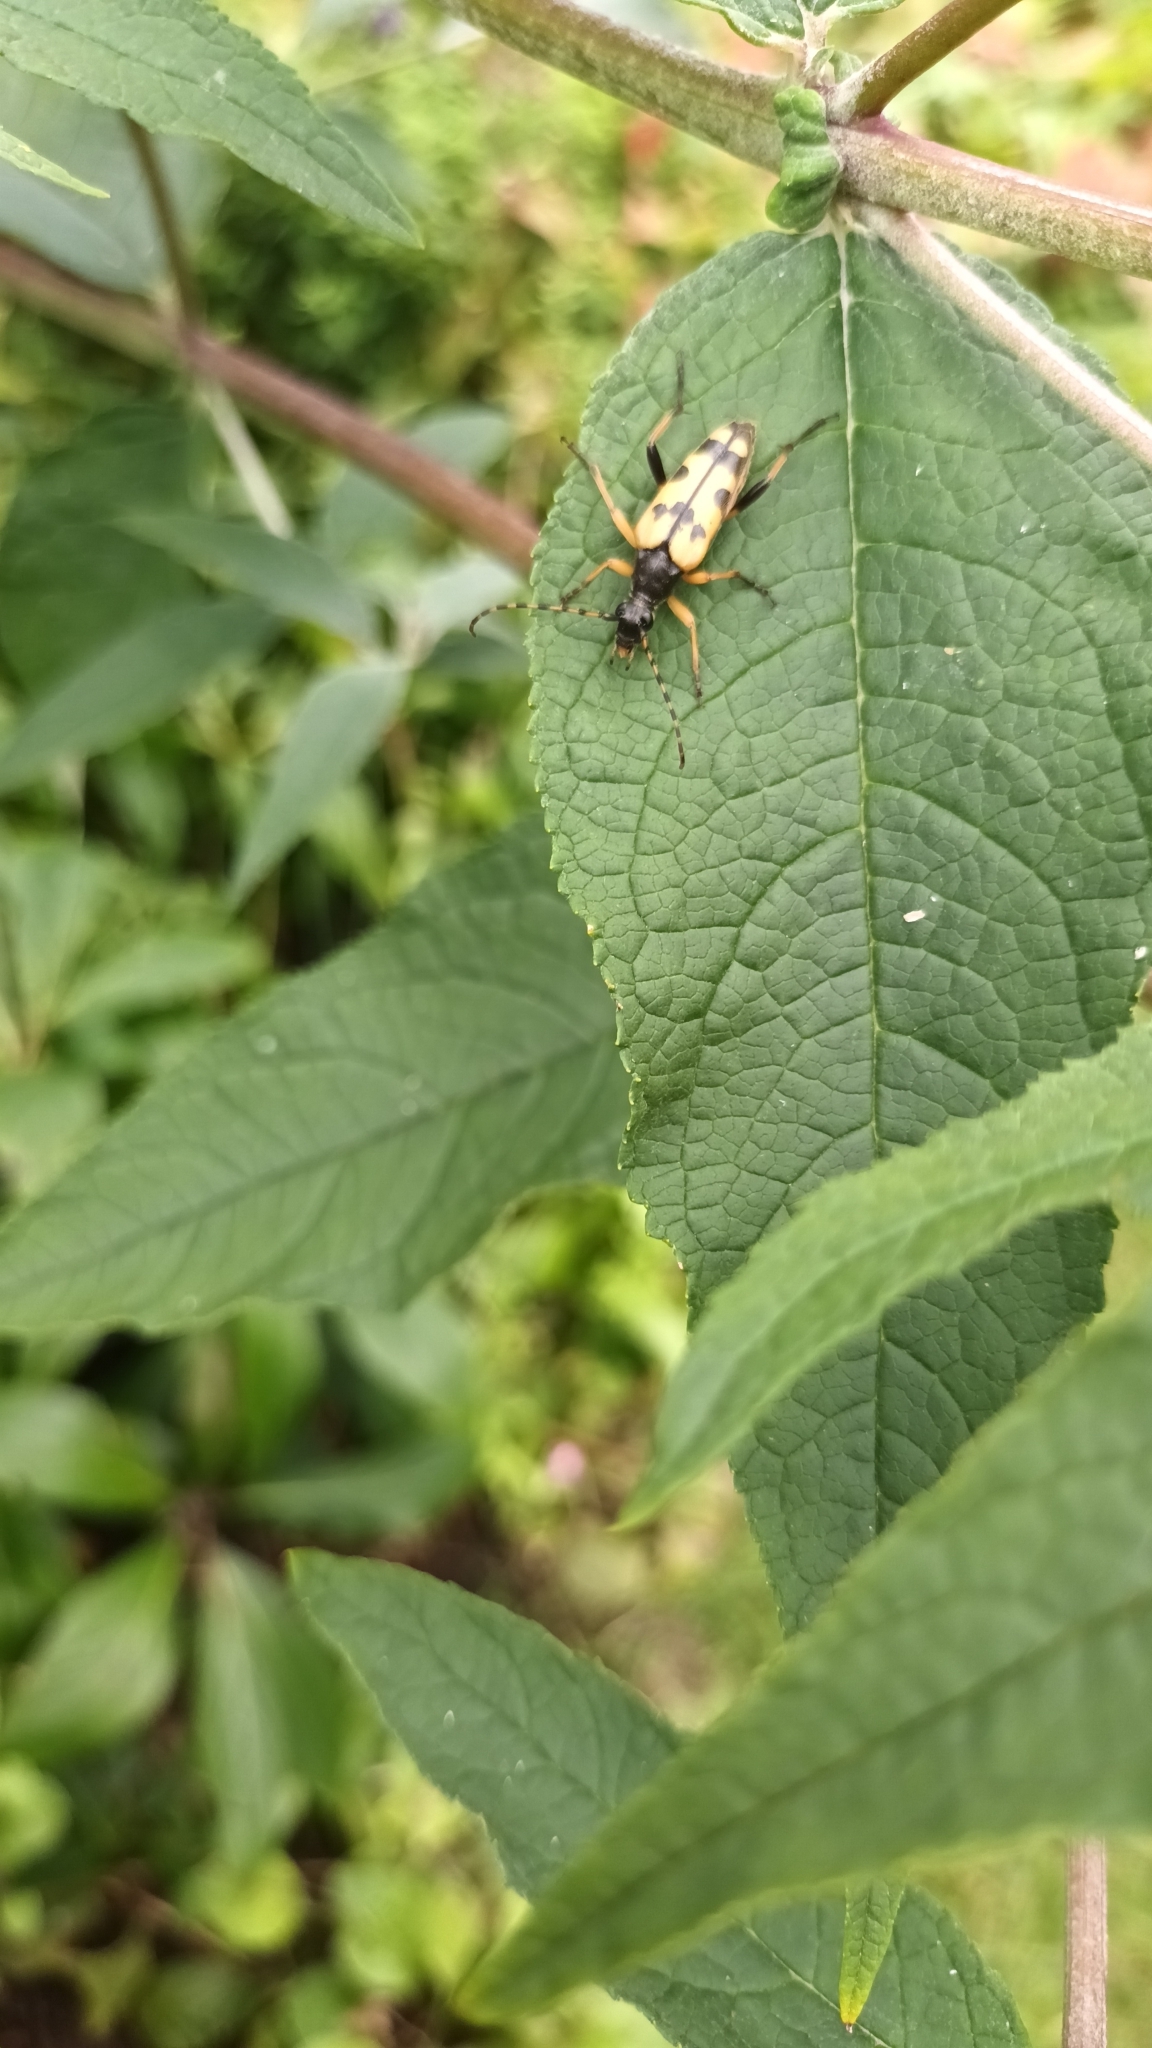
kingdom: Animalia
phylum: Arthropoda
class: Insecta
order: Coleoptera
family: Cerambycidae
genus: Rutpela
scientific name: Rutpela maculata
